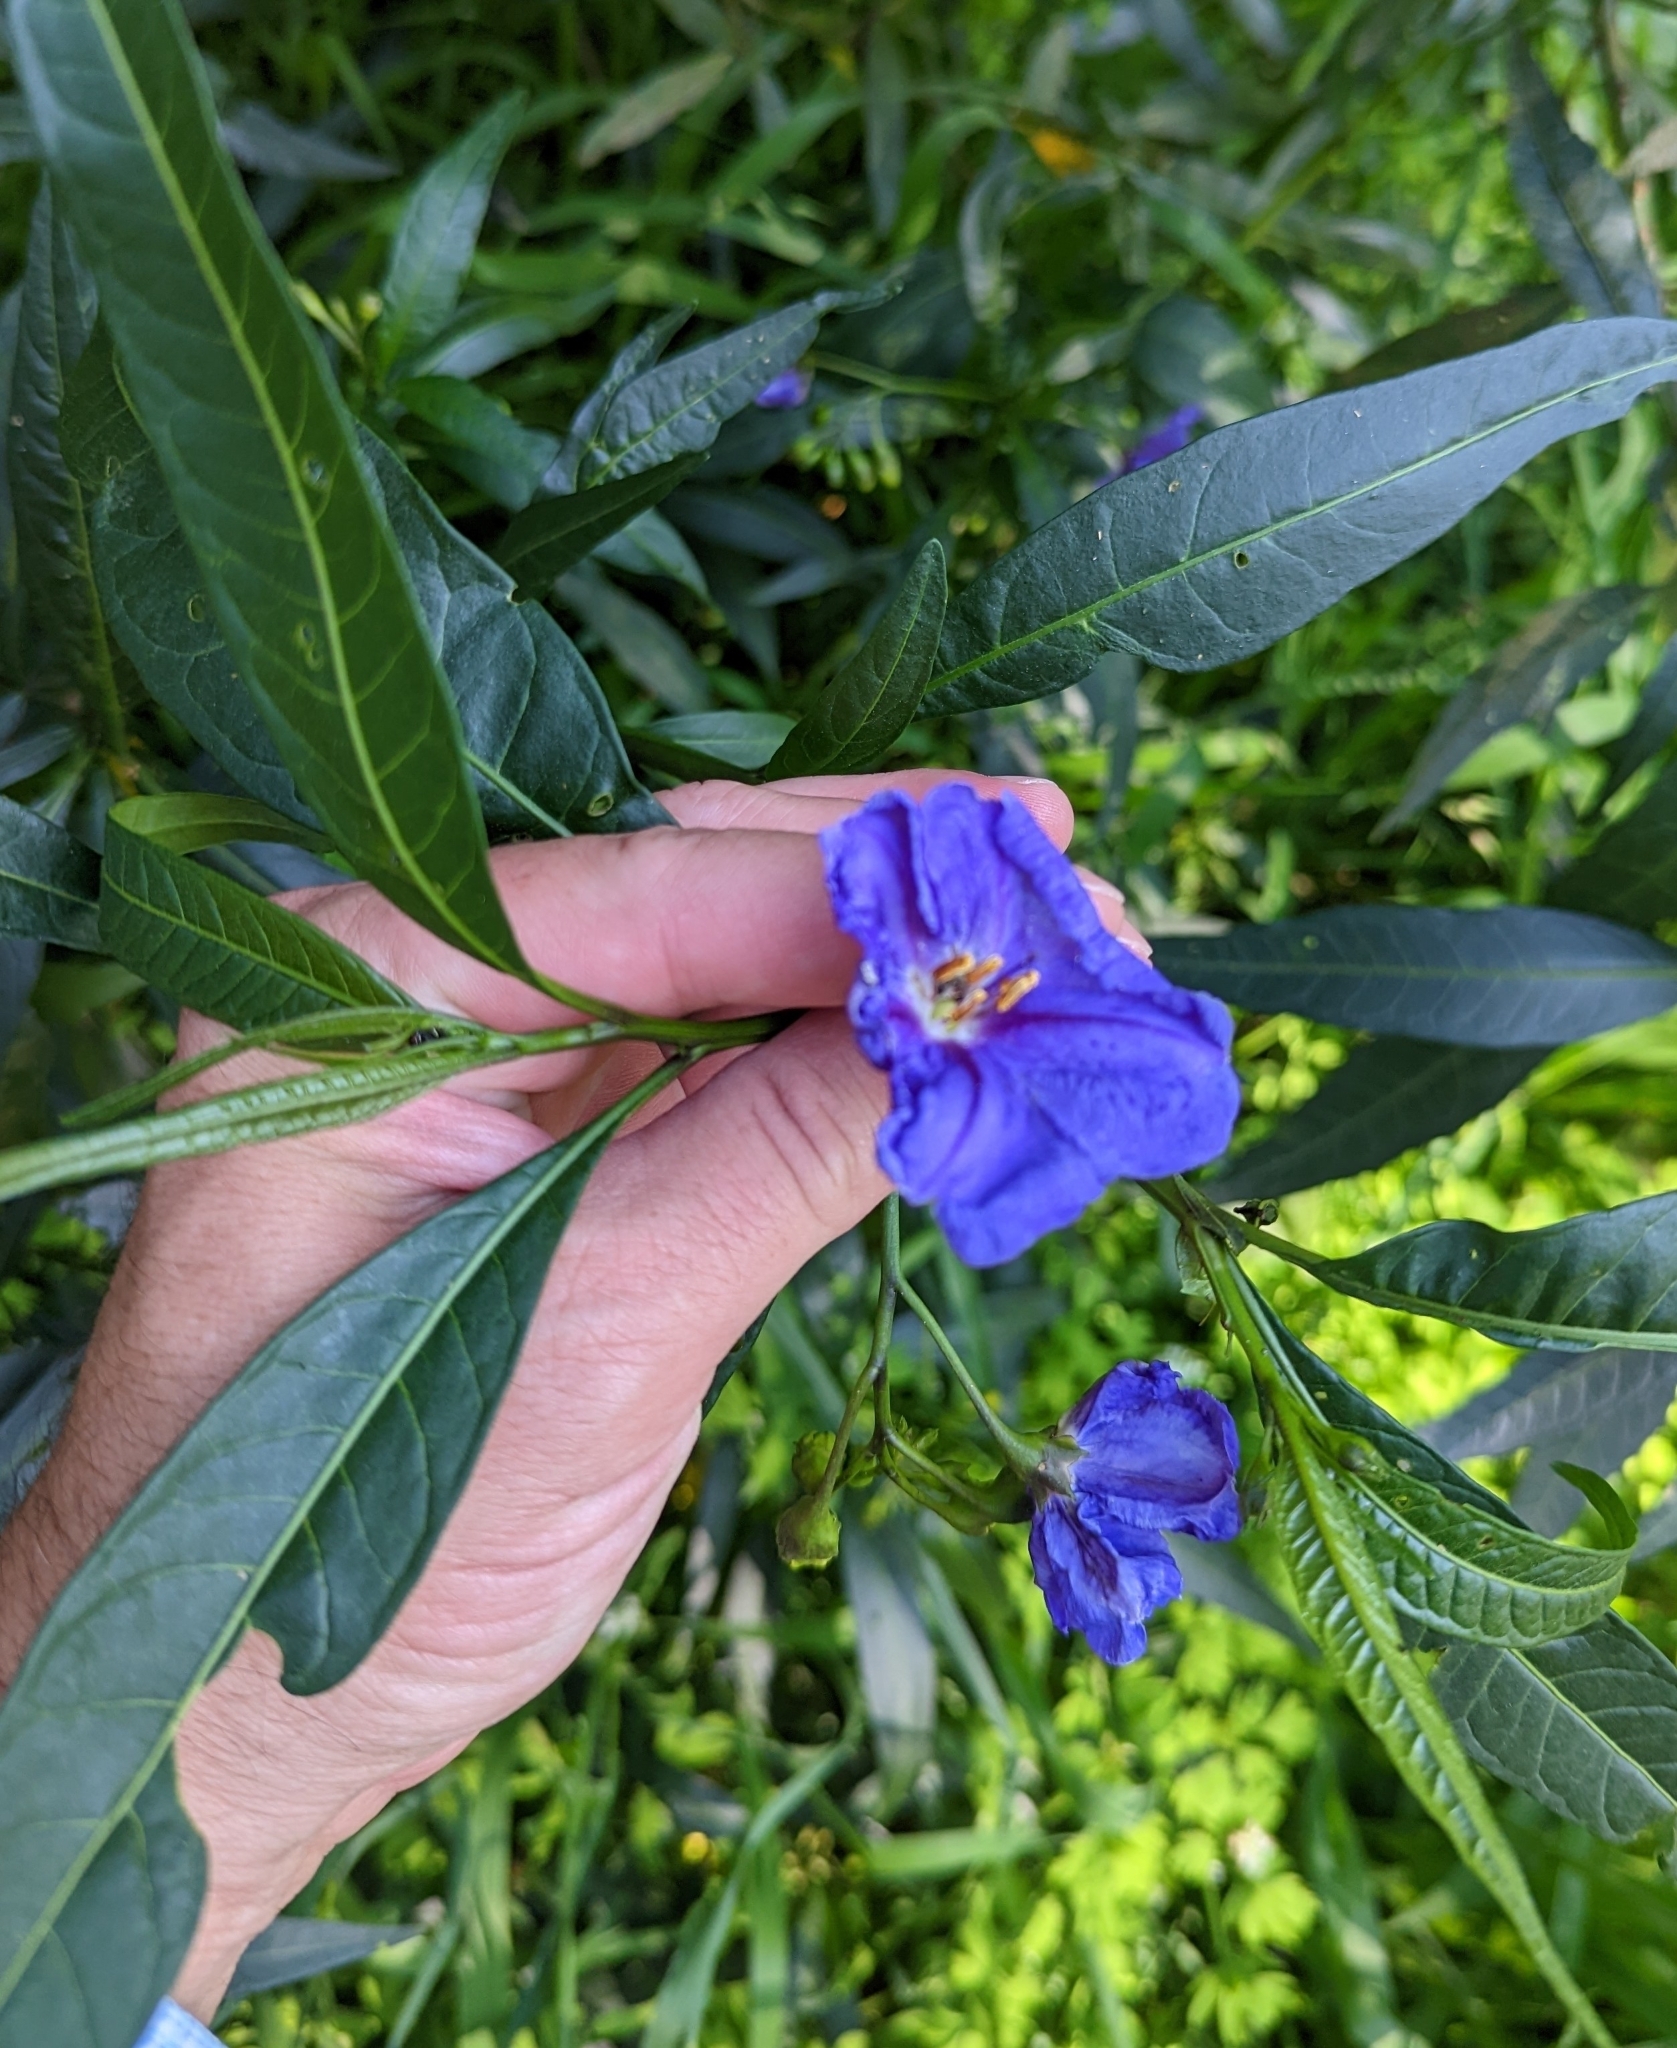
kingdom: Plantae
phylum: Tracheophyta
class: Magnoliopsida
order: Solanales
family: Solanaceae
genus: Solanum
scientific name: Solanum laciniatum
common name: Kangaroo-apple
